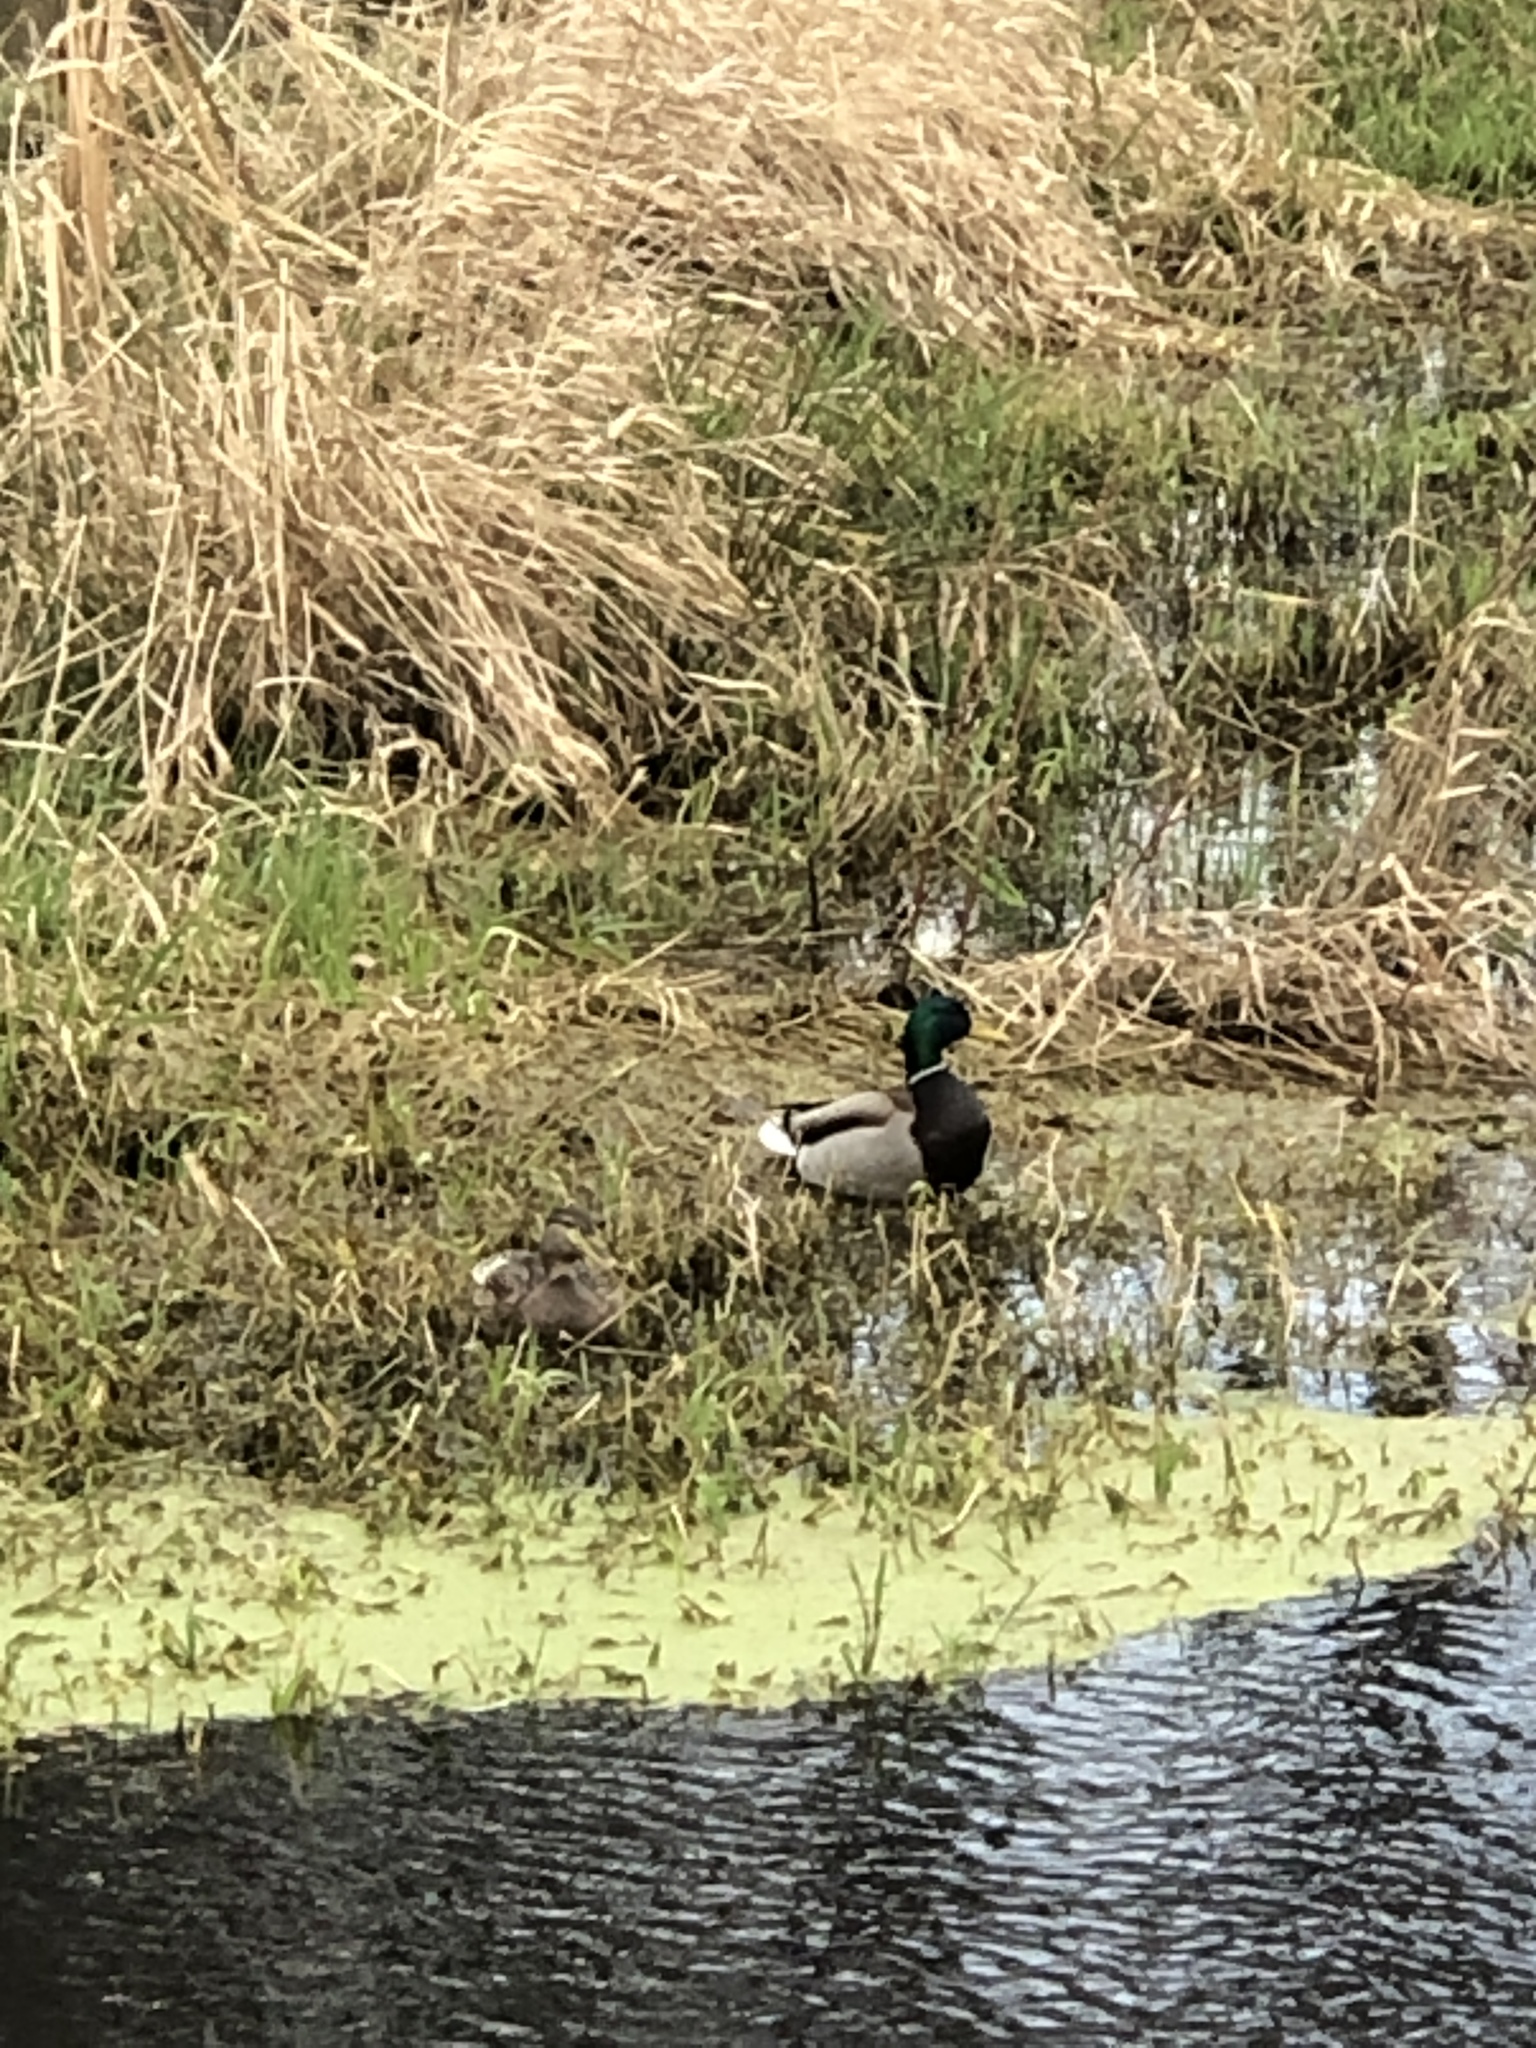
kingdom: Animalia
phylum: Chordata
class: Aves
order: Anseriformes
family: Anatidae
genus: Anas
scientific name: Anas platyrhynchos
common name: Mallard
